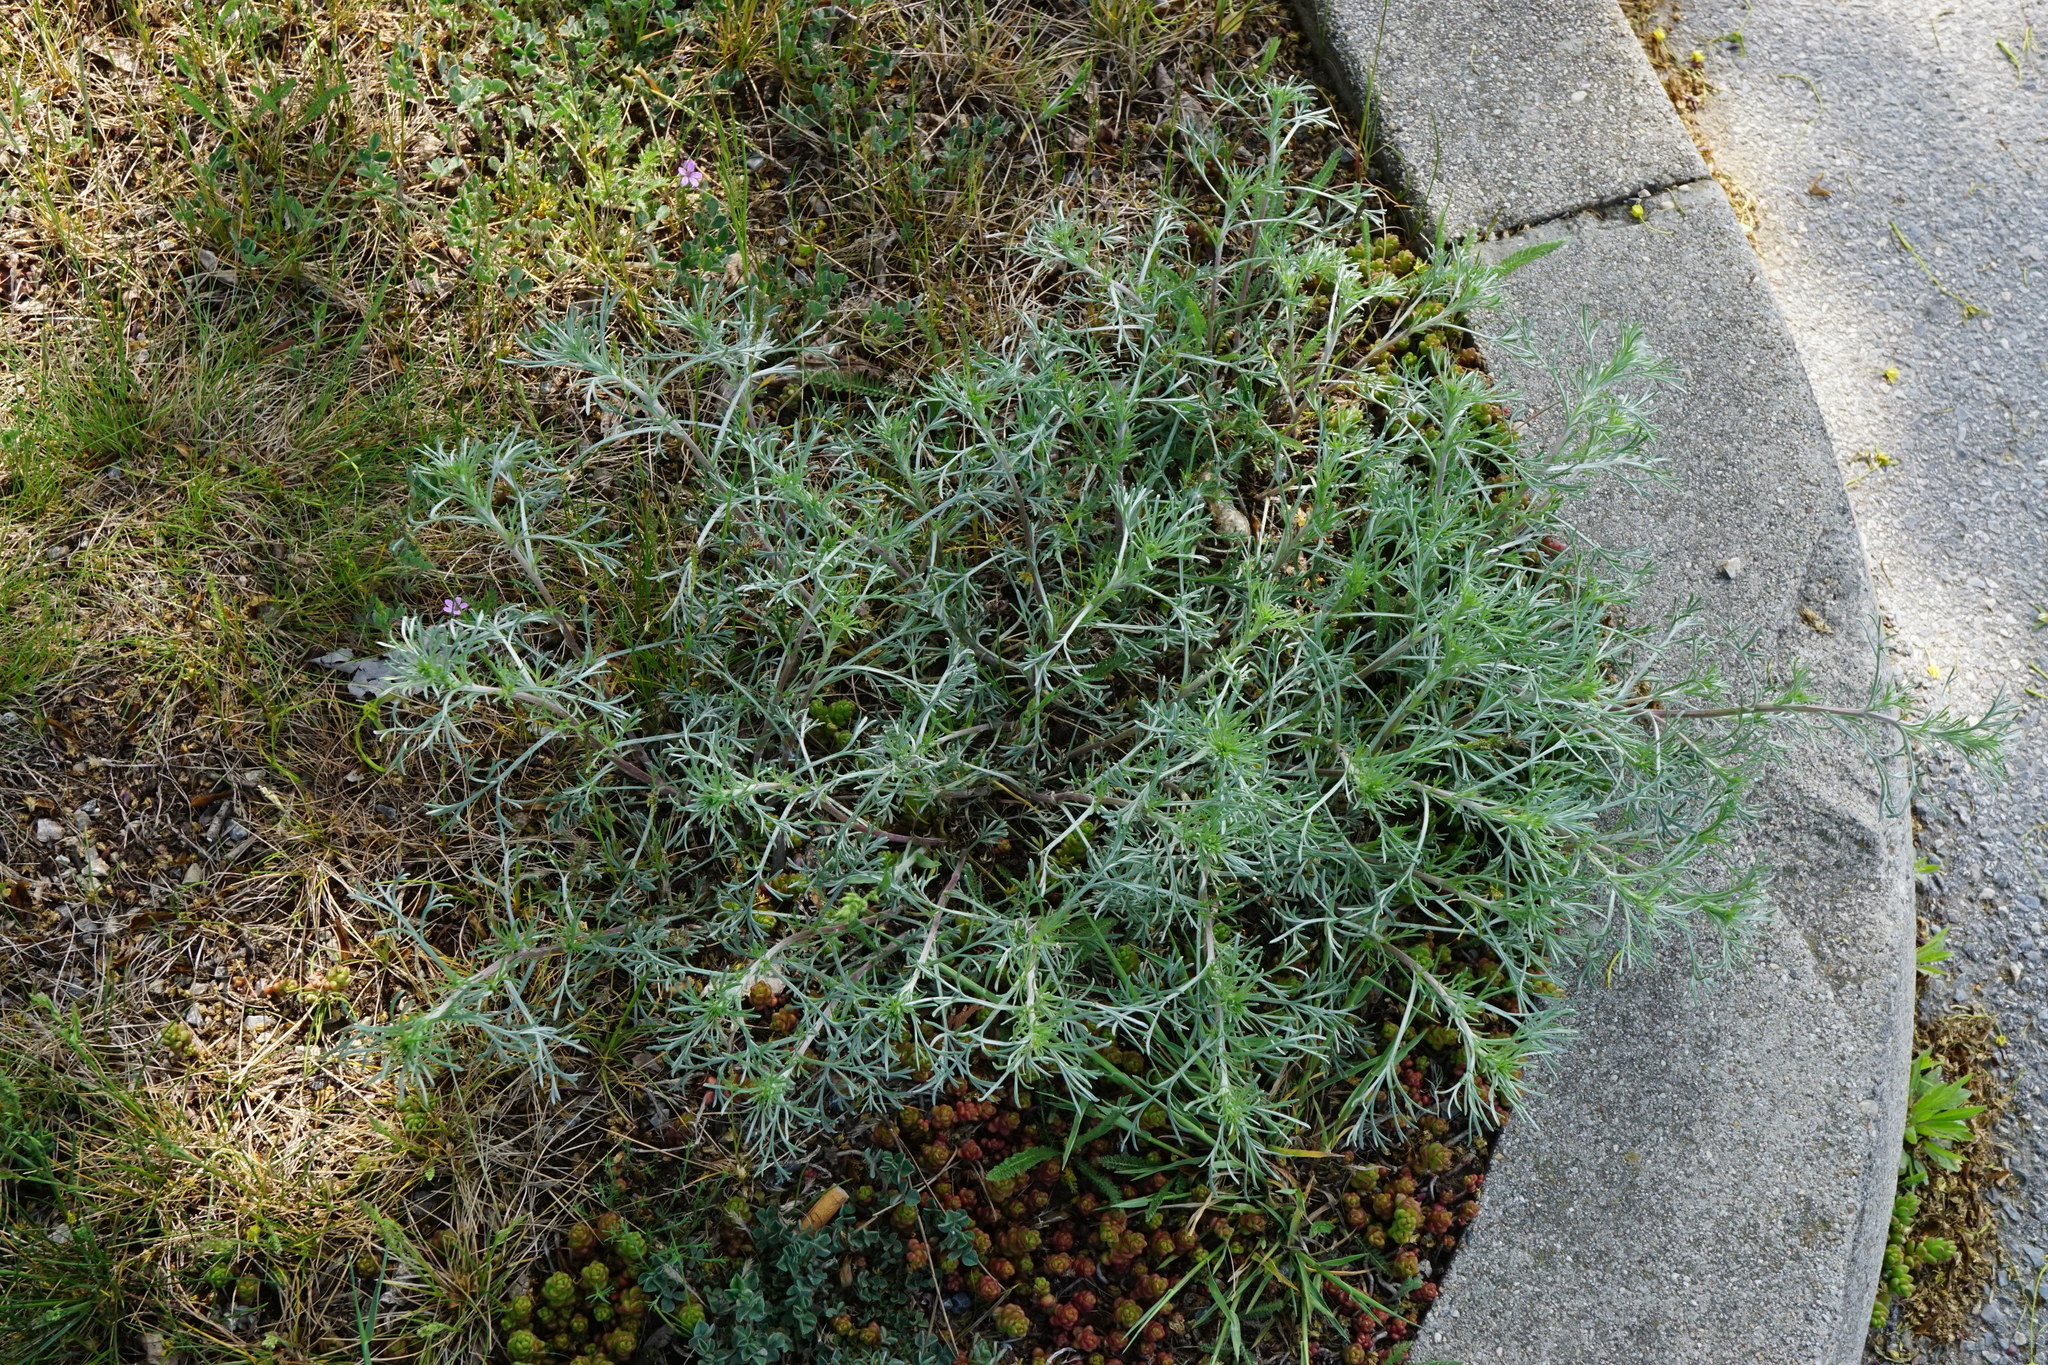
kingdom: Plantae
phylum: Tracheophyta
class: Magnoliopsida
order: Asterales
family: Asteraceae
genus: Artemisia
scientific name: Artemisia campestris
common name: Field wormwood
